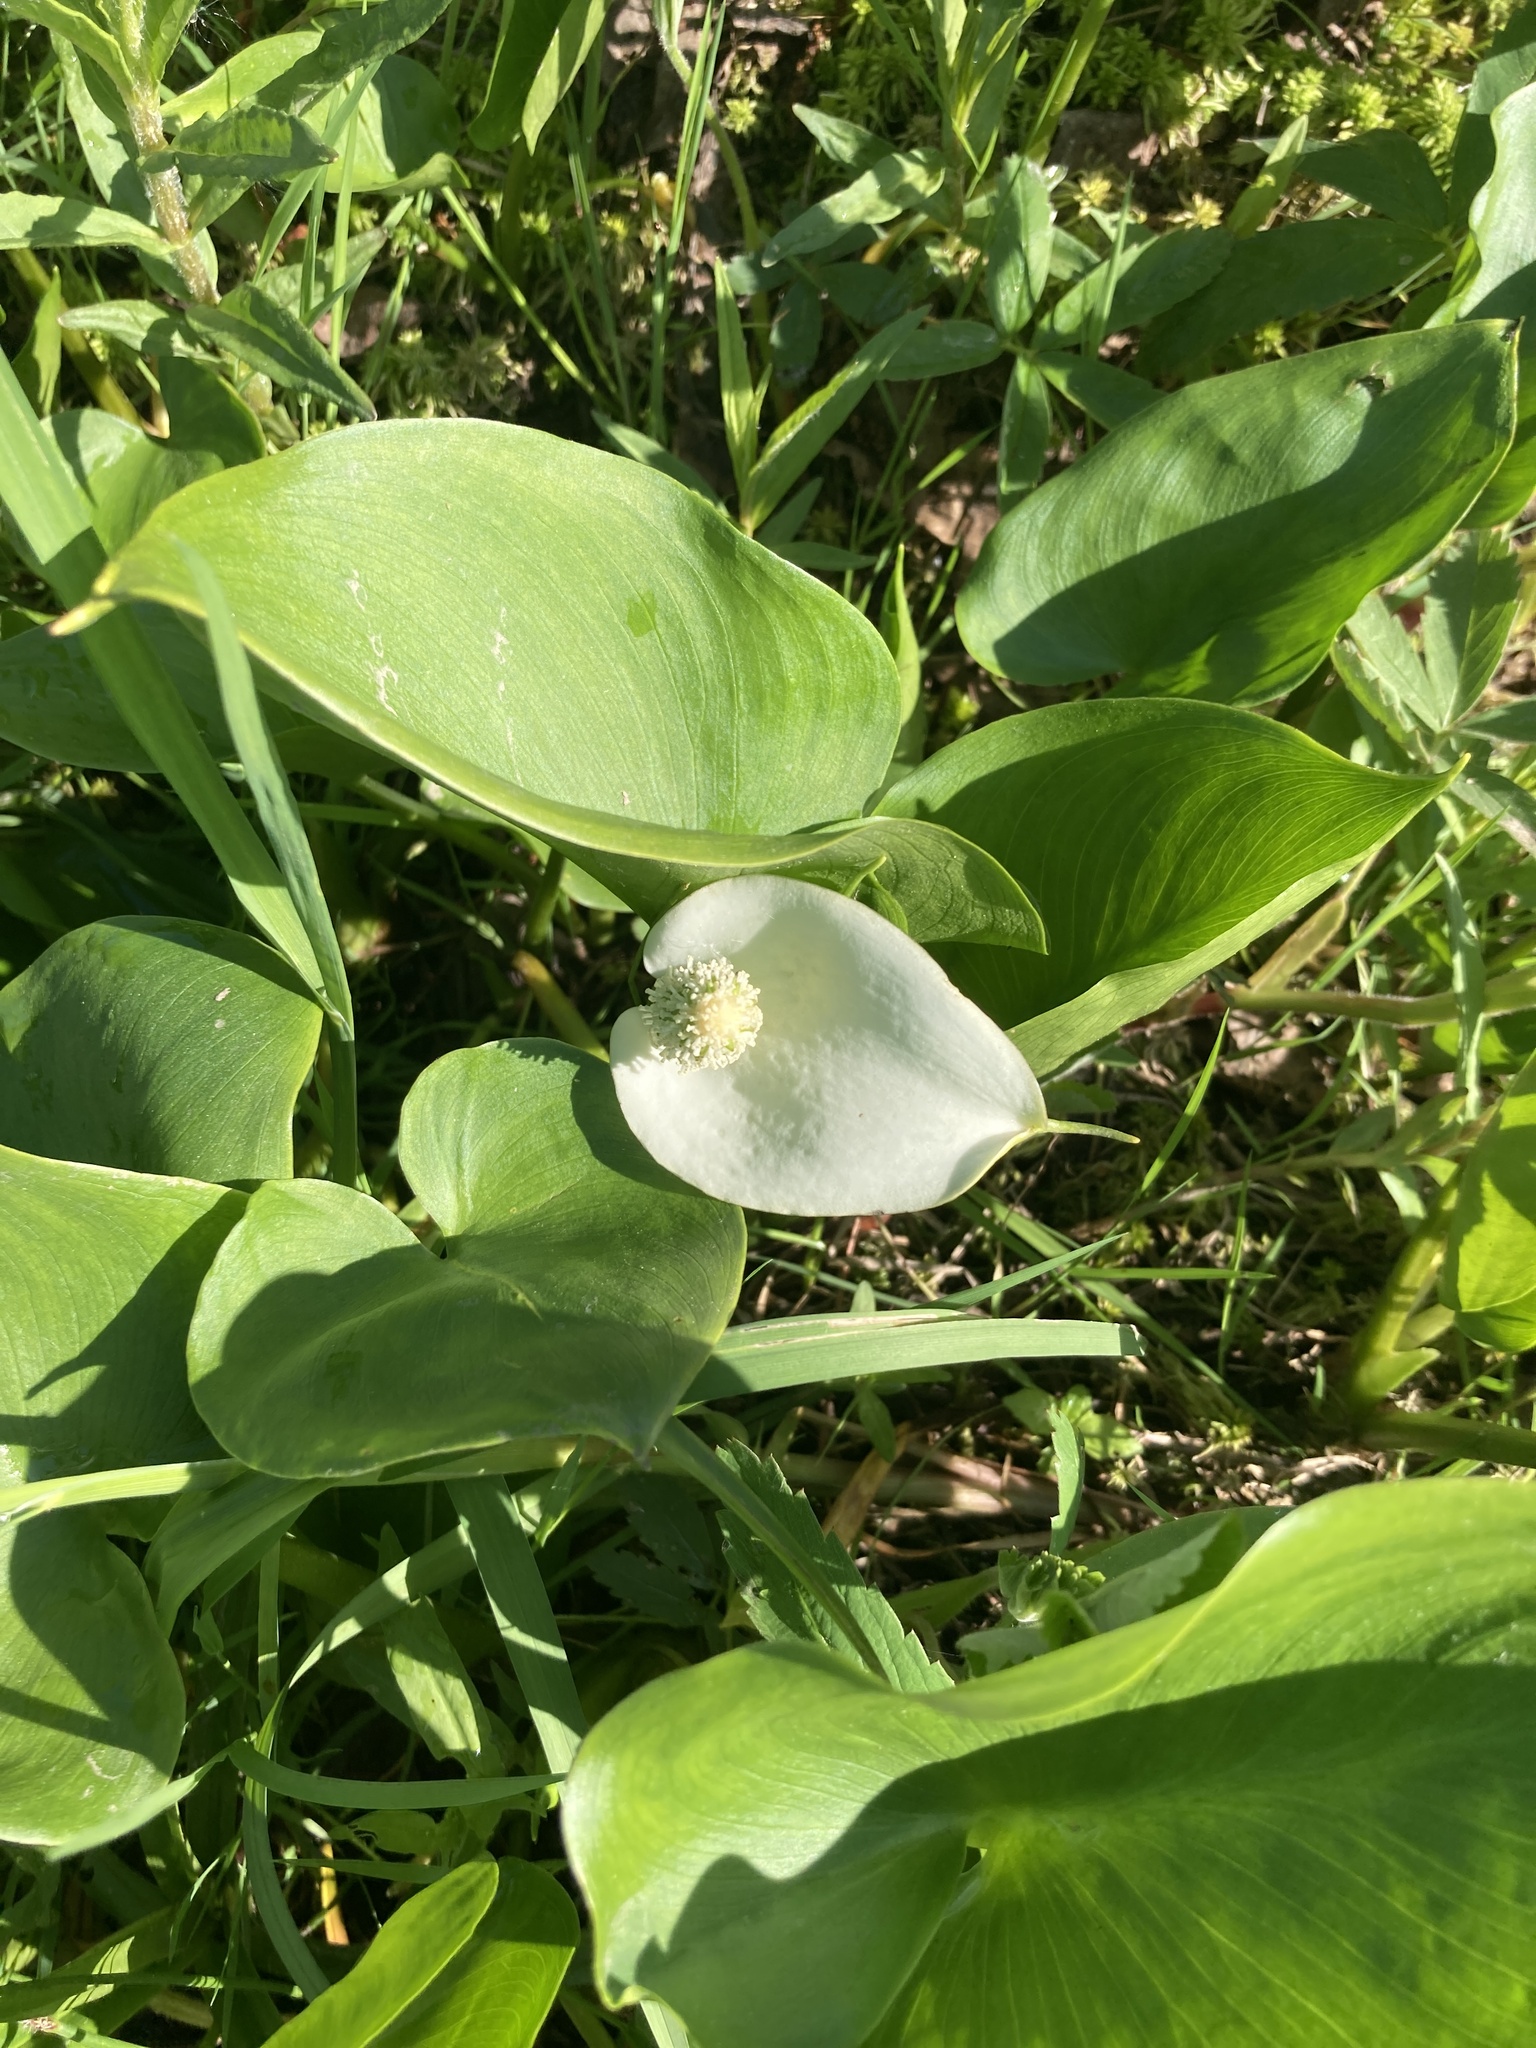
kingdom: Plantae
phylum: Tracheophyta
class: Liliopsida
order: Alismatales
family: Araceae
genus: Calla
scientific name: Calla palustris
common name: Bog arum
